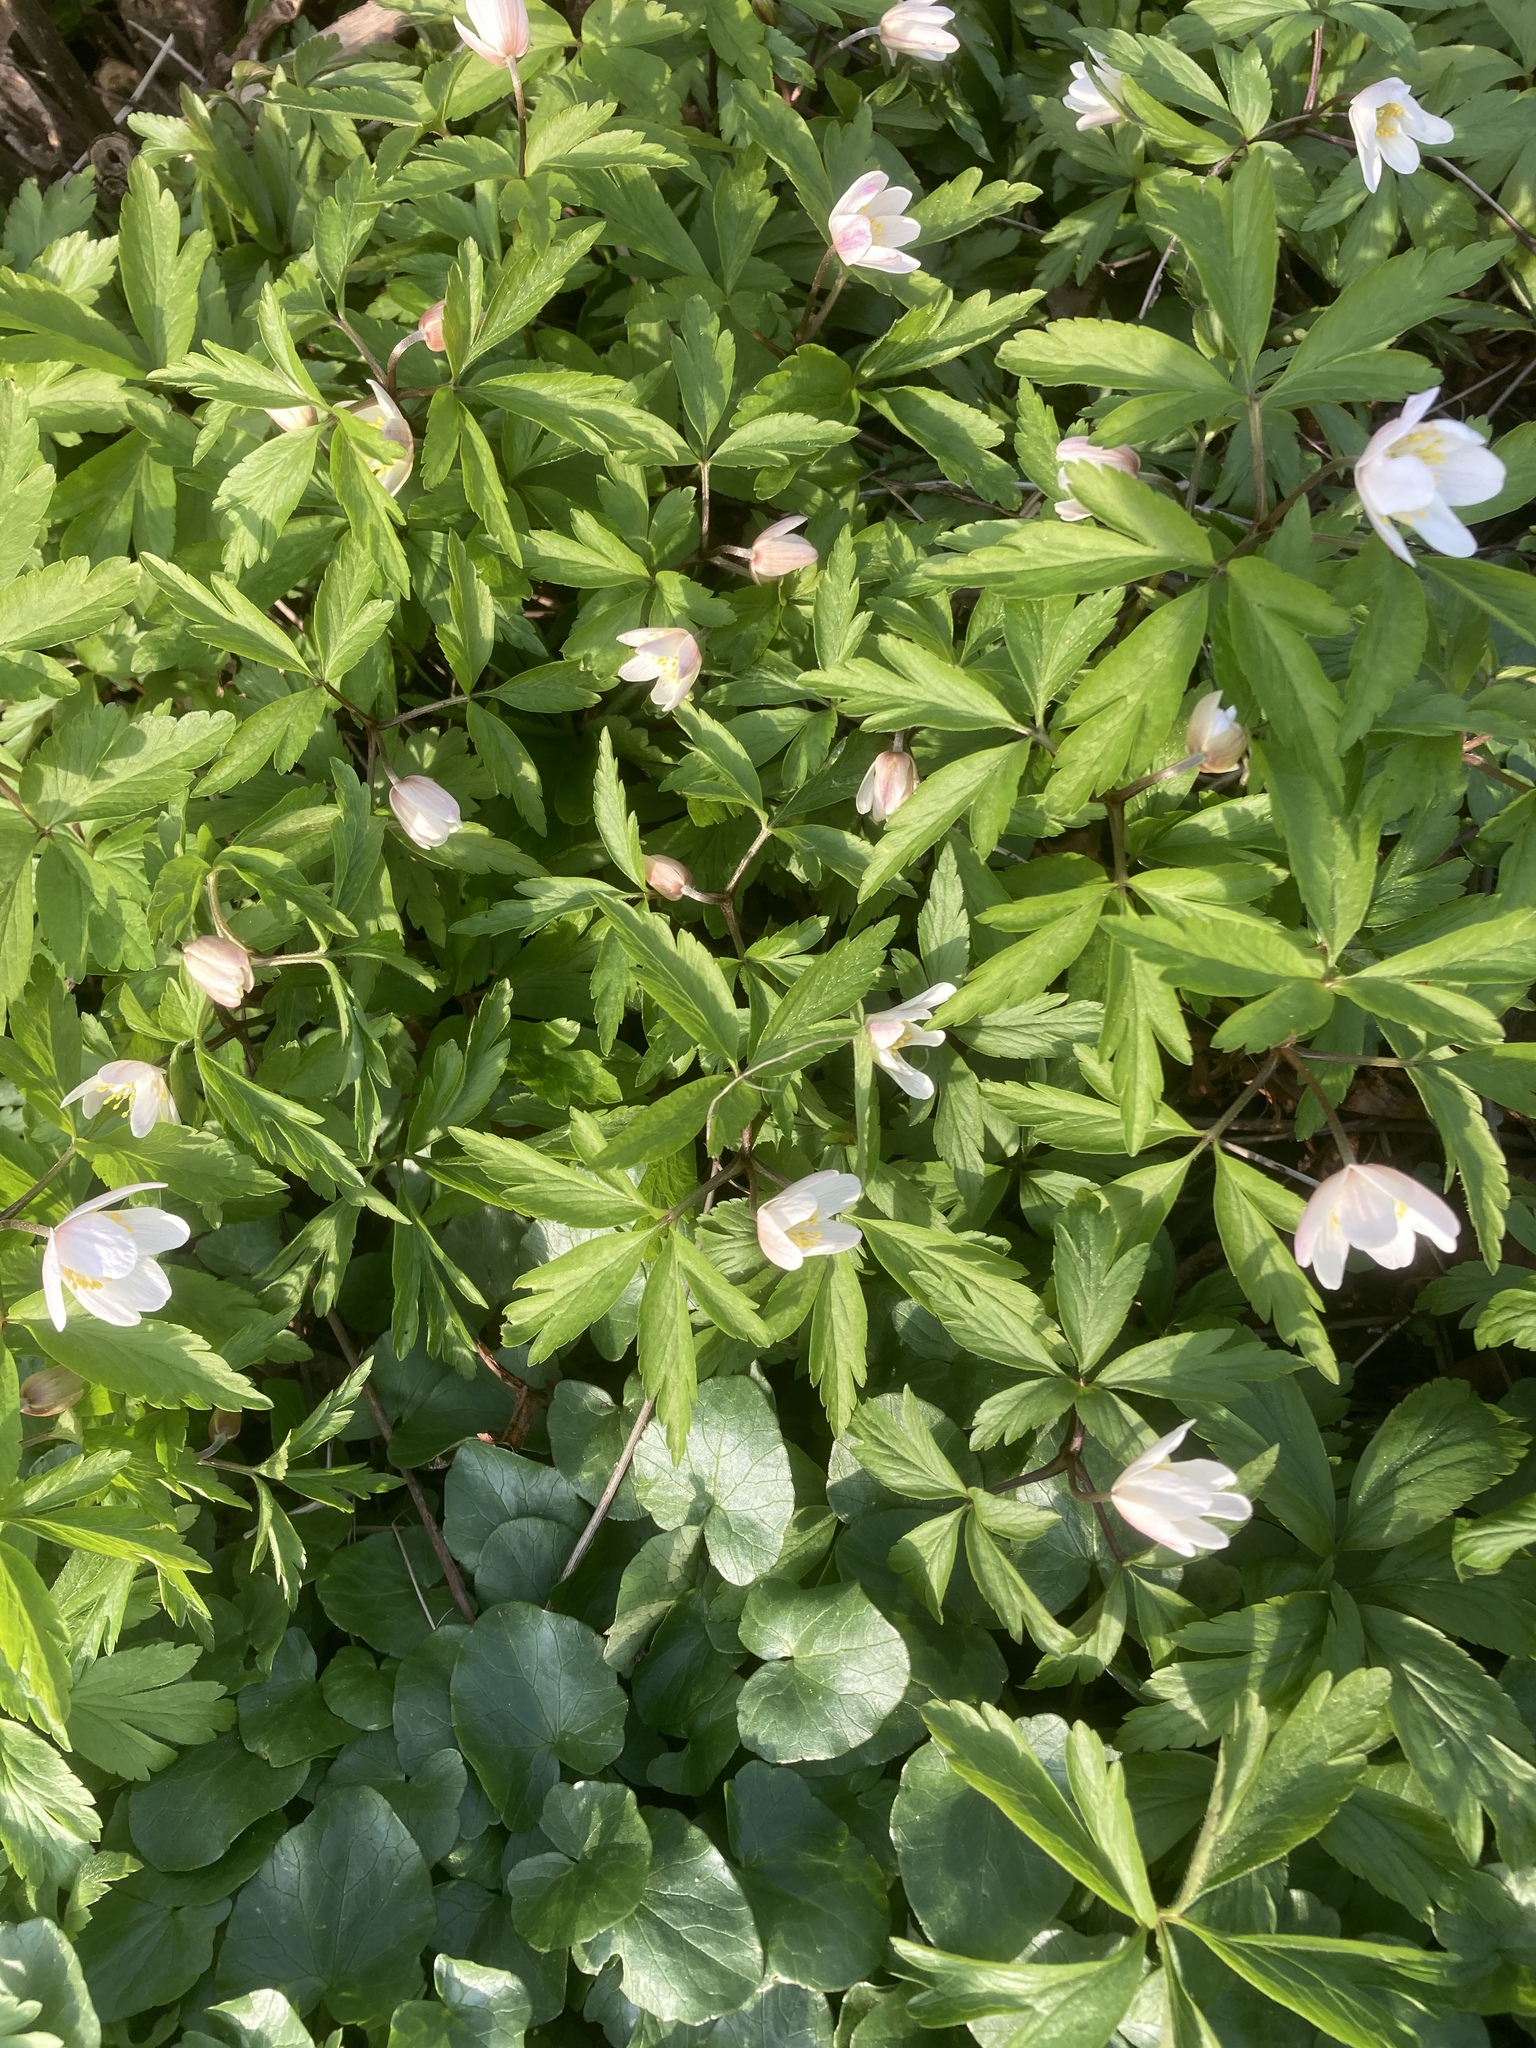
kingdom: Plantae
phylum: Tracheophyta
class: Magnoliopsida
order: Ranunculales
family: Ranunculaceae
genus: Anemone
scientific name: Anemone nemorosa
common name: Wood anemone
